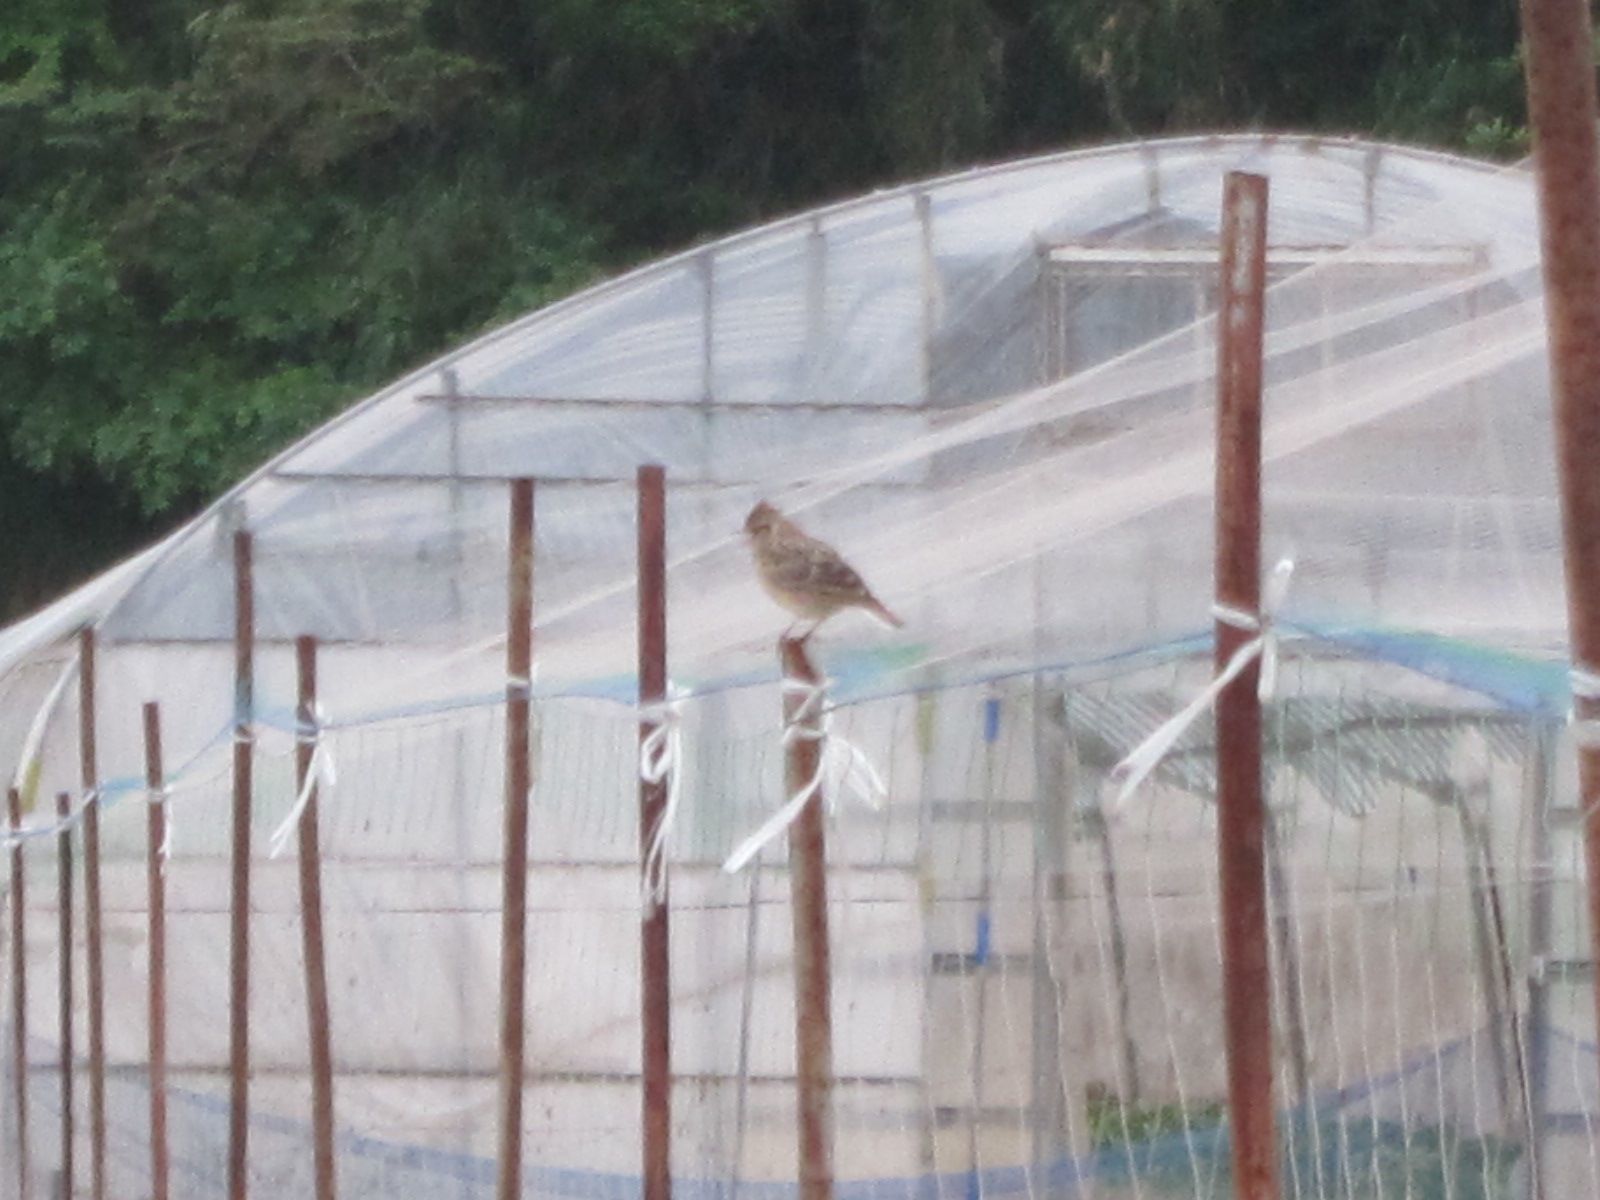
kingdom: Animalia
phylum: Chordata
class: Aves
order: Passeriformes
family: Alaudidae
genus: Alauda
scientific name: Alauda arvensis
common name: Eurasian skylark
